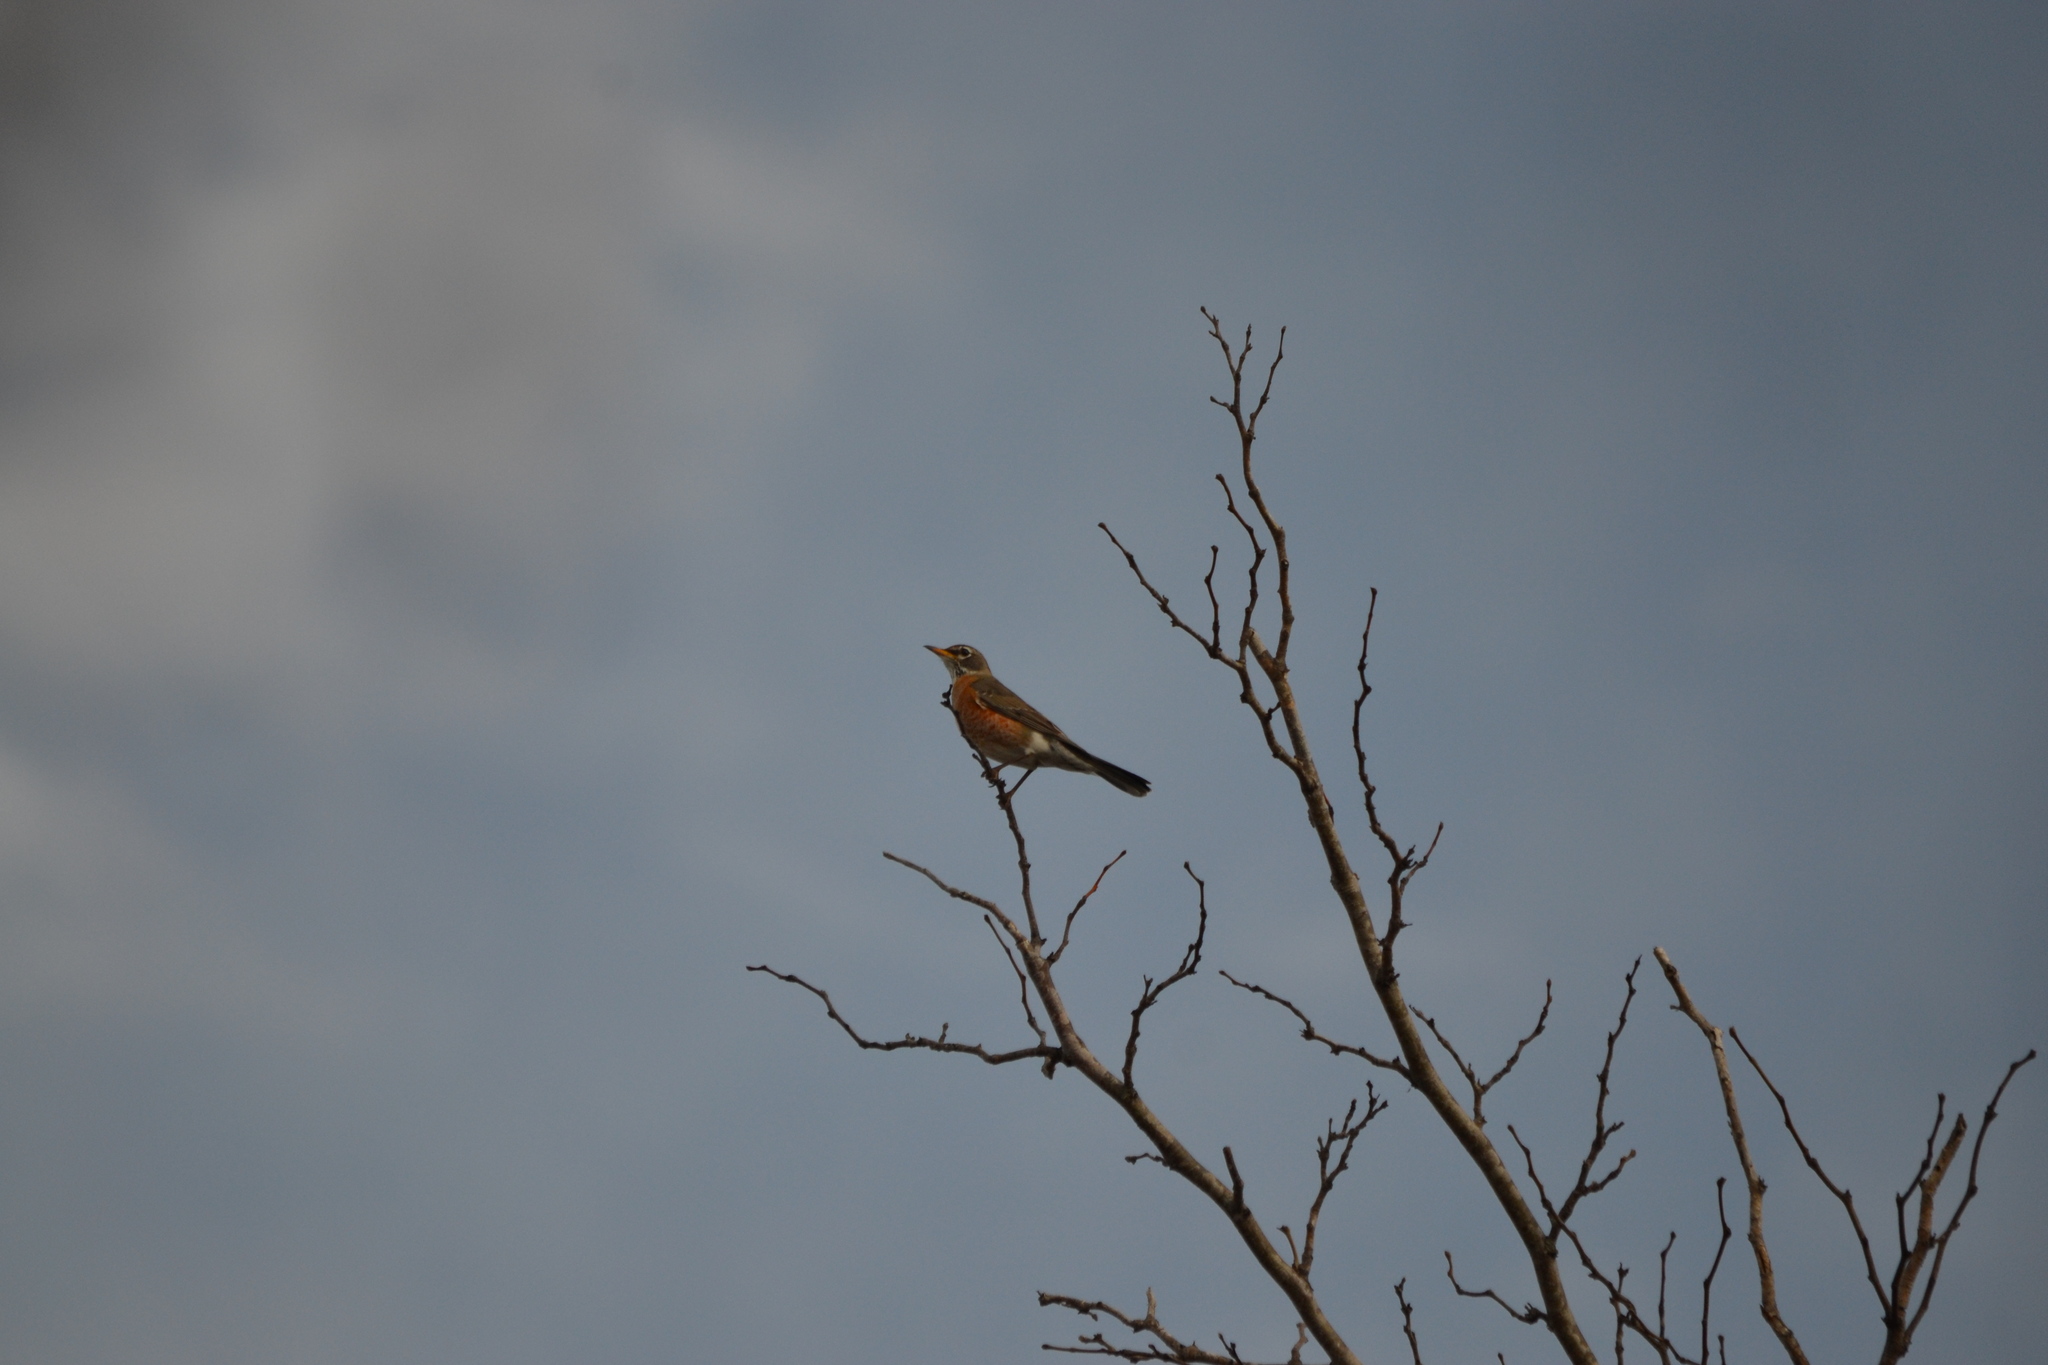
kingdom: Animalia
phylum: Chordata
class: Aves
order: Passeriformes
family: Turdidae
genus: Turdus
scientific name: Turdus migratorius
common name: American robin
